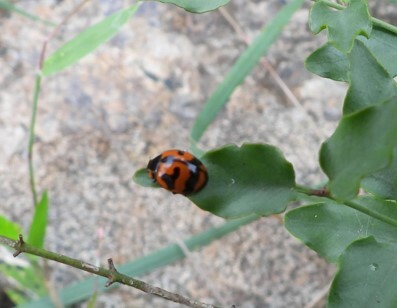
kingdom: Animalia
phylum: Arthropoda
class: Insecta
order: Coleoptera
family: Coccinellidae
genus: Coccinella
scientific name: Coccinella transversalis
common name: Transverse lady beetle
